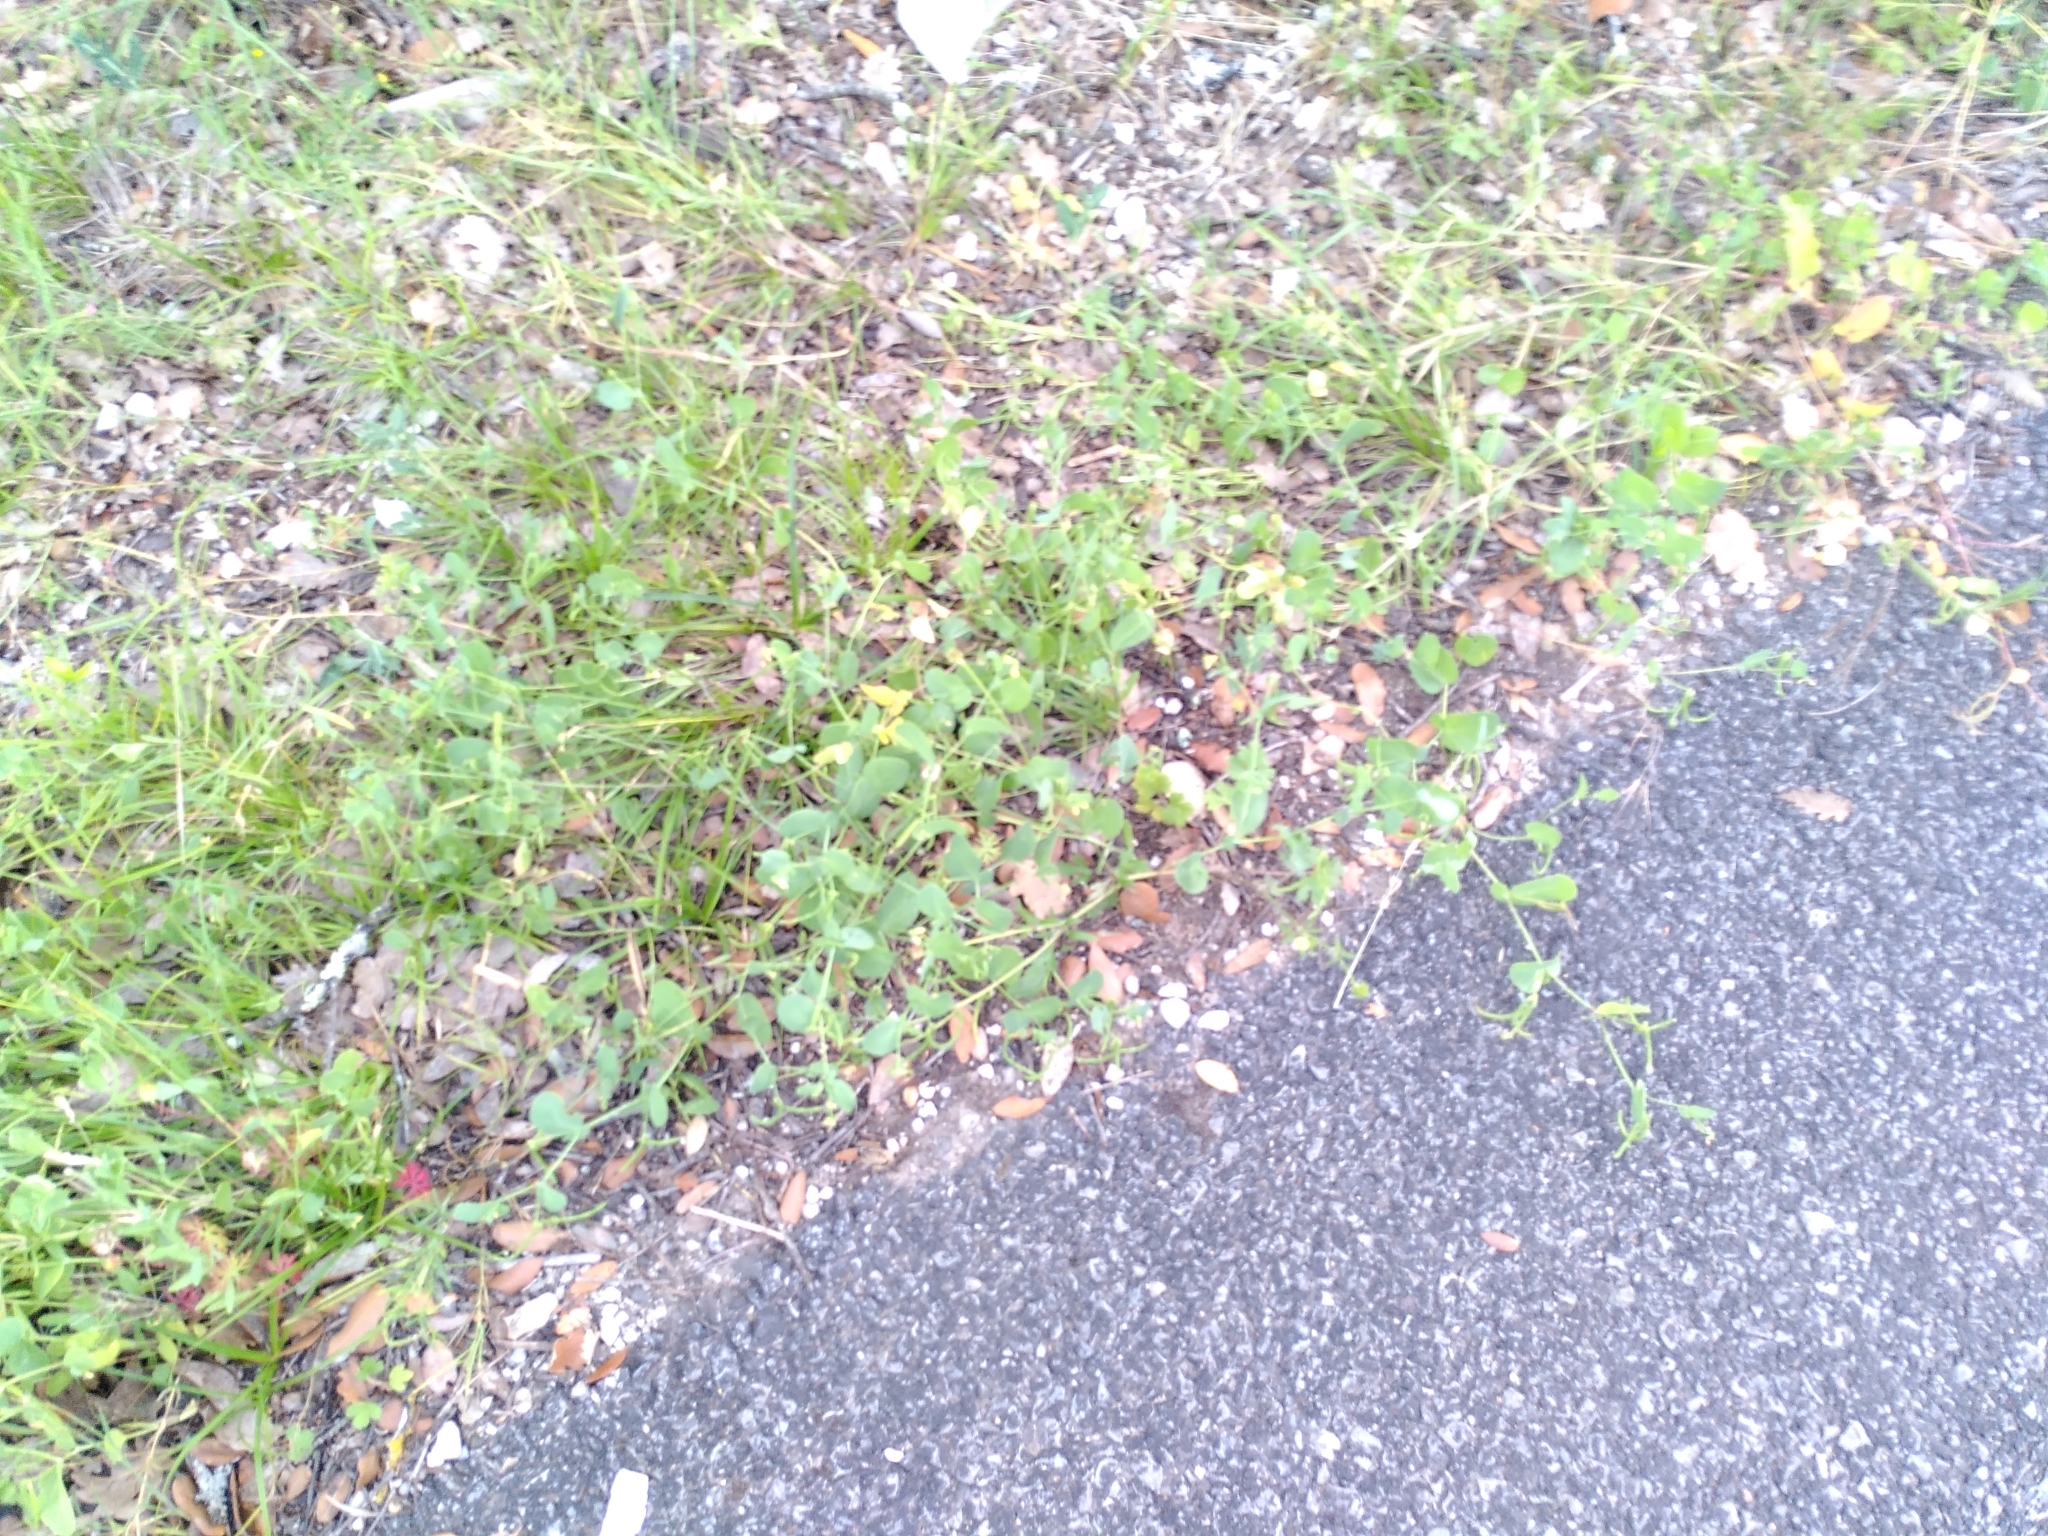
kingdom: Plantae
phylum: Tracheophyta
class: Magnoliopsida
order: Fabales
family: Fabaceae
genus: Coronilla
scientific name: Coronilla scorpioides
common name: Annual scorpion-vetch
